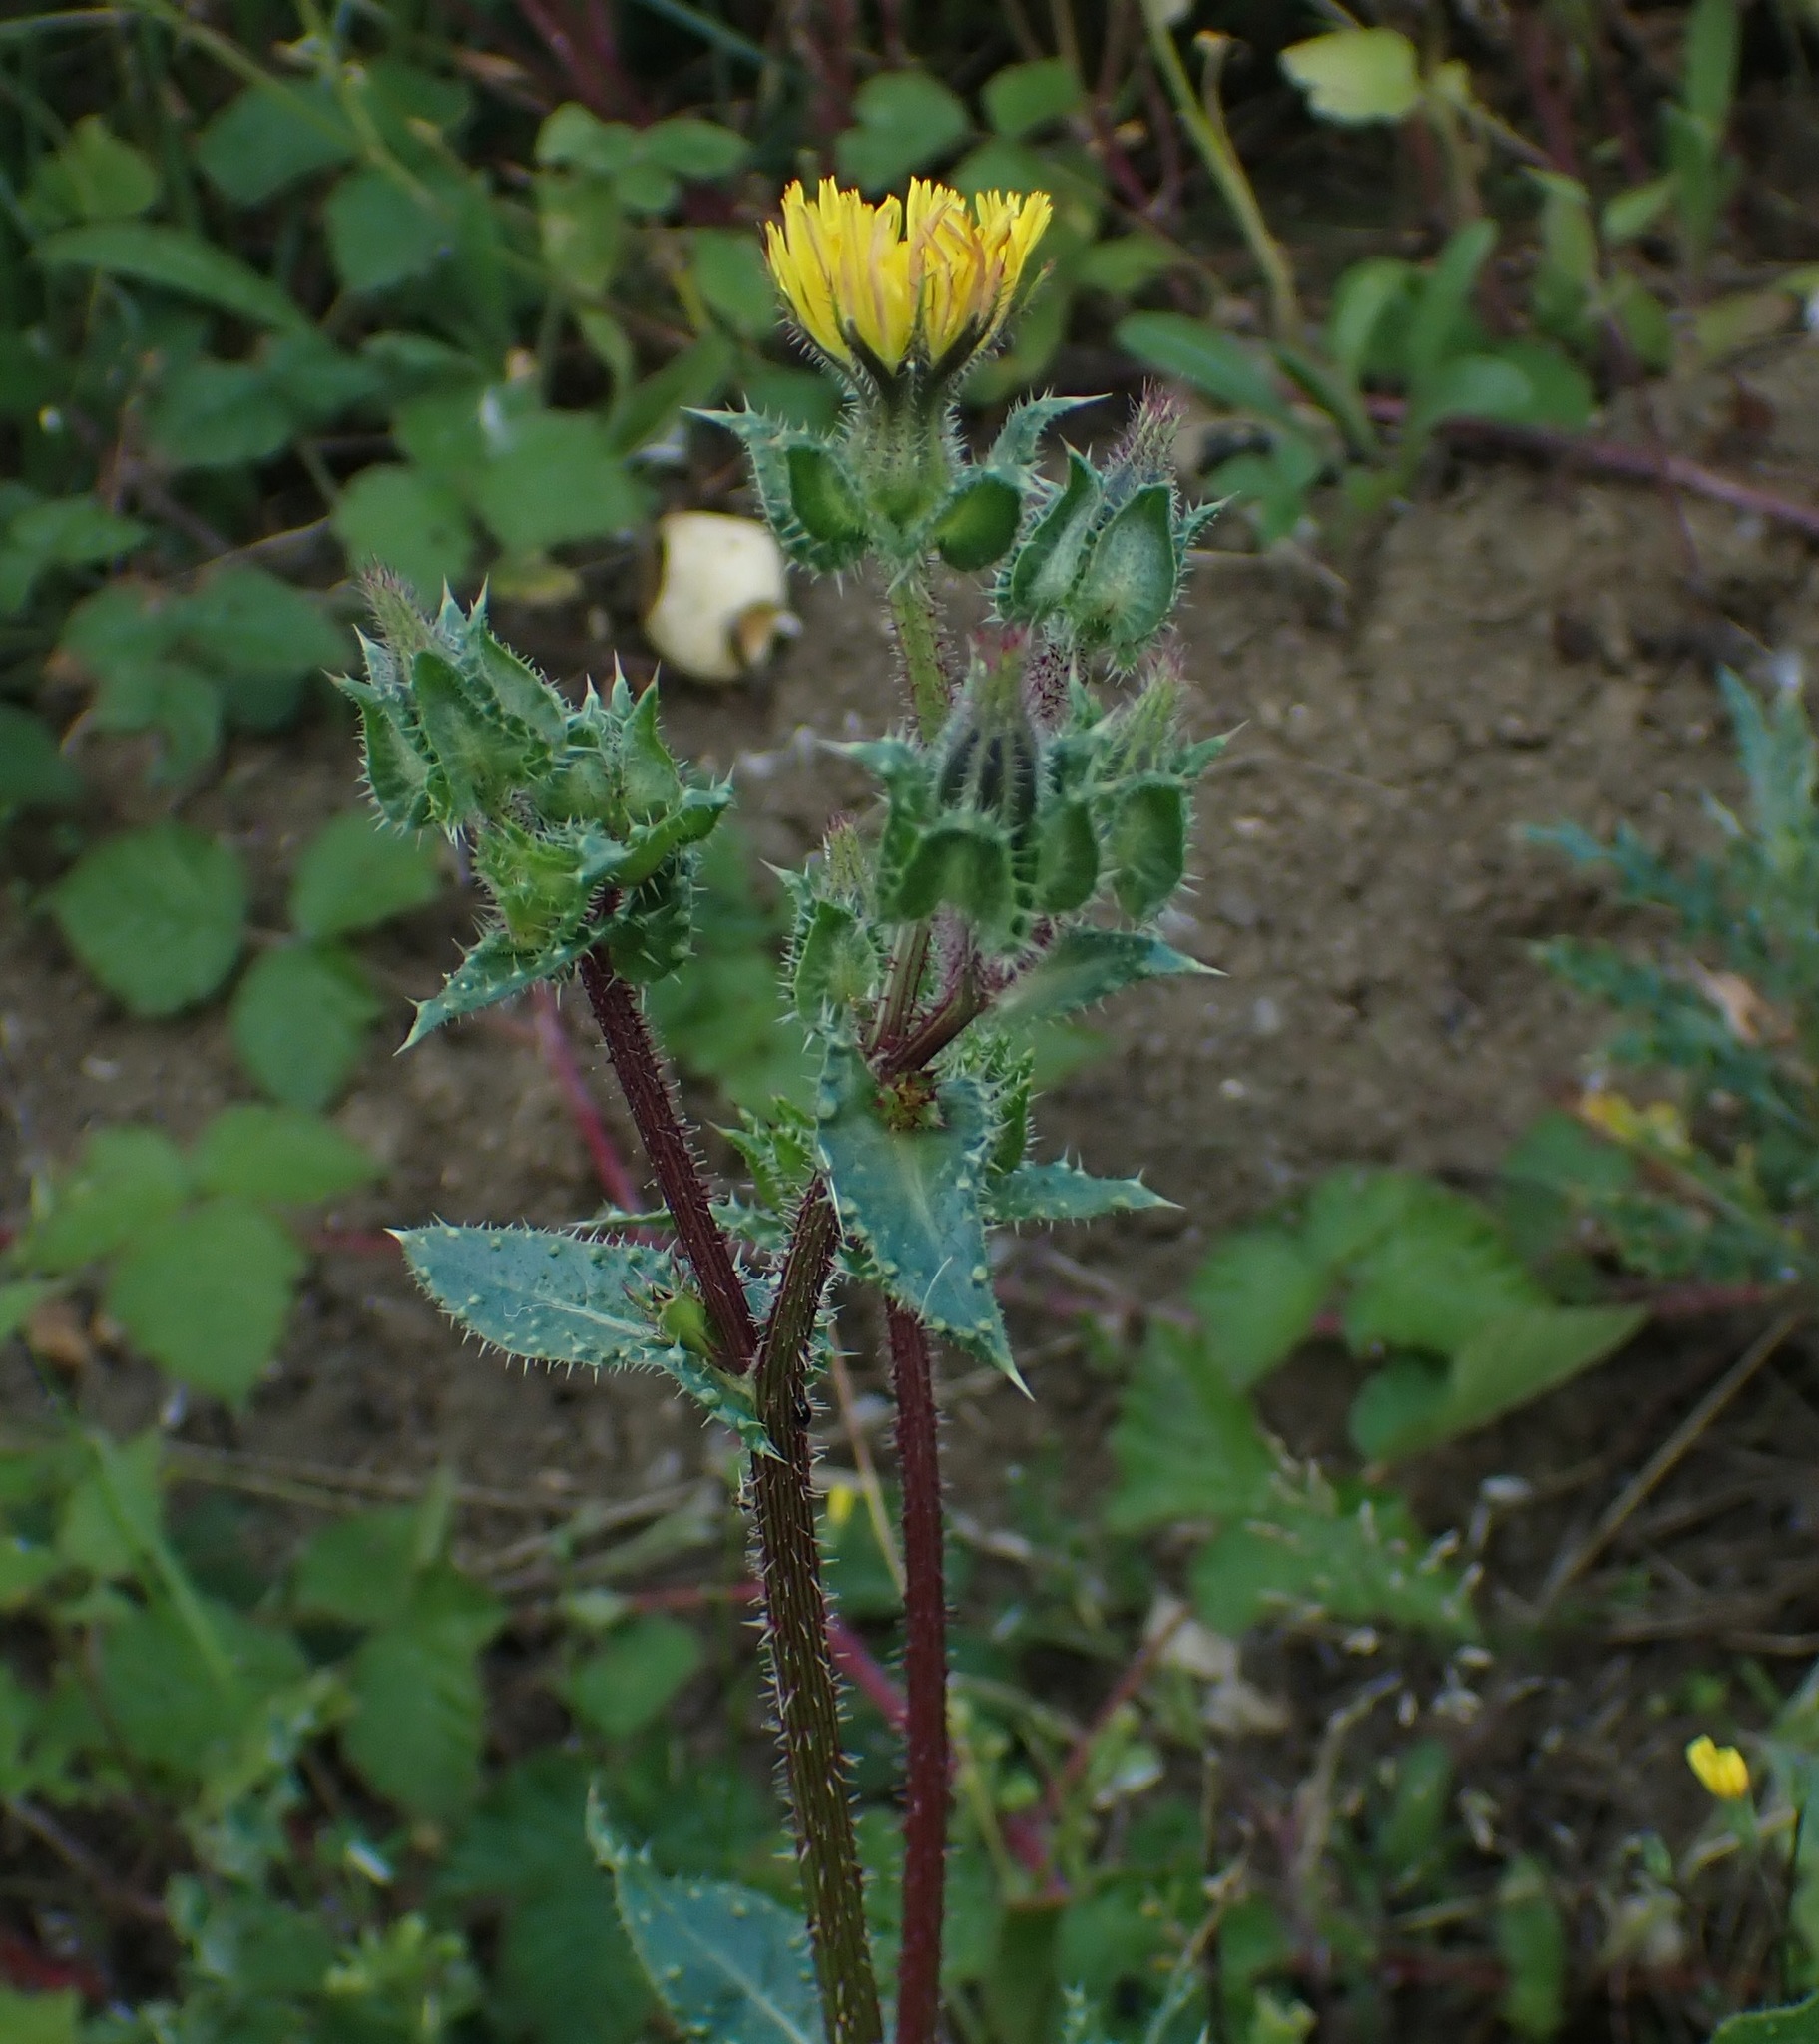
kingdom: Plantae
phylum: Tracheophyta
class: Magnoliopsida
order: Asterales
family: Asteraceae
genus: Helminthotheca
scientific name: Helminthotheca echioides
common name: Ox-tongue
